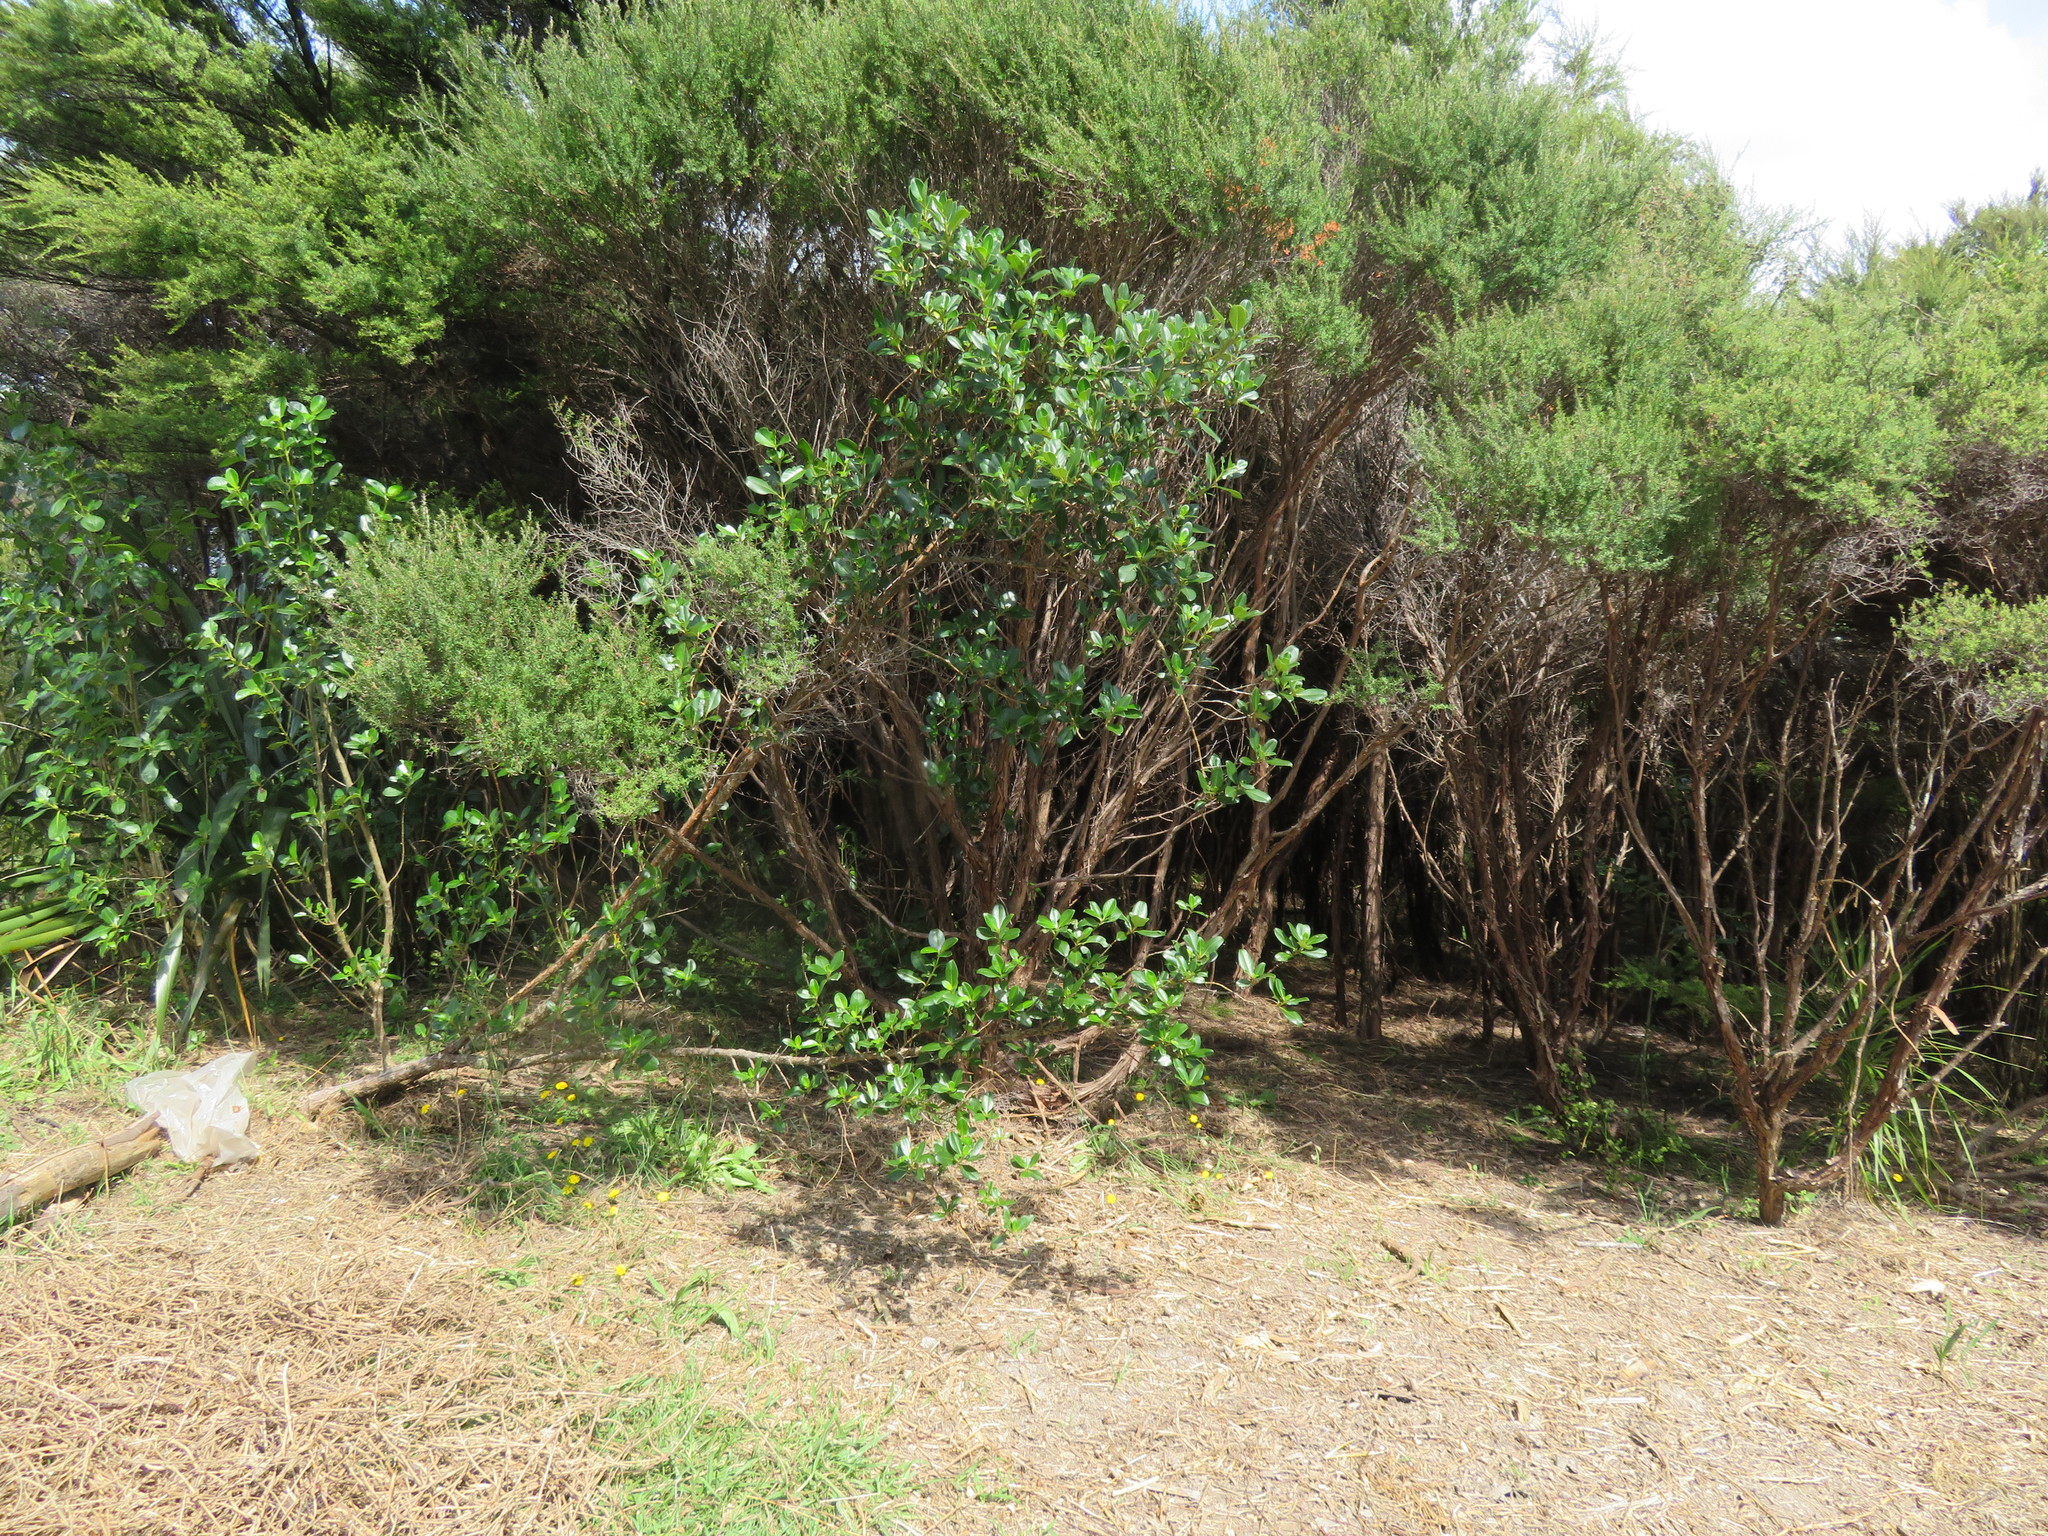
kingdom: Plantae
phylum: Tracheophyta
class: Magnoliopsida
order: Asterales
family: Asteraceae
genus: Hypochaeris
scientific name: Hypochaeris radicata
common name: Flatweed
